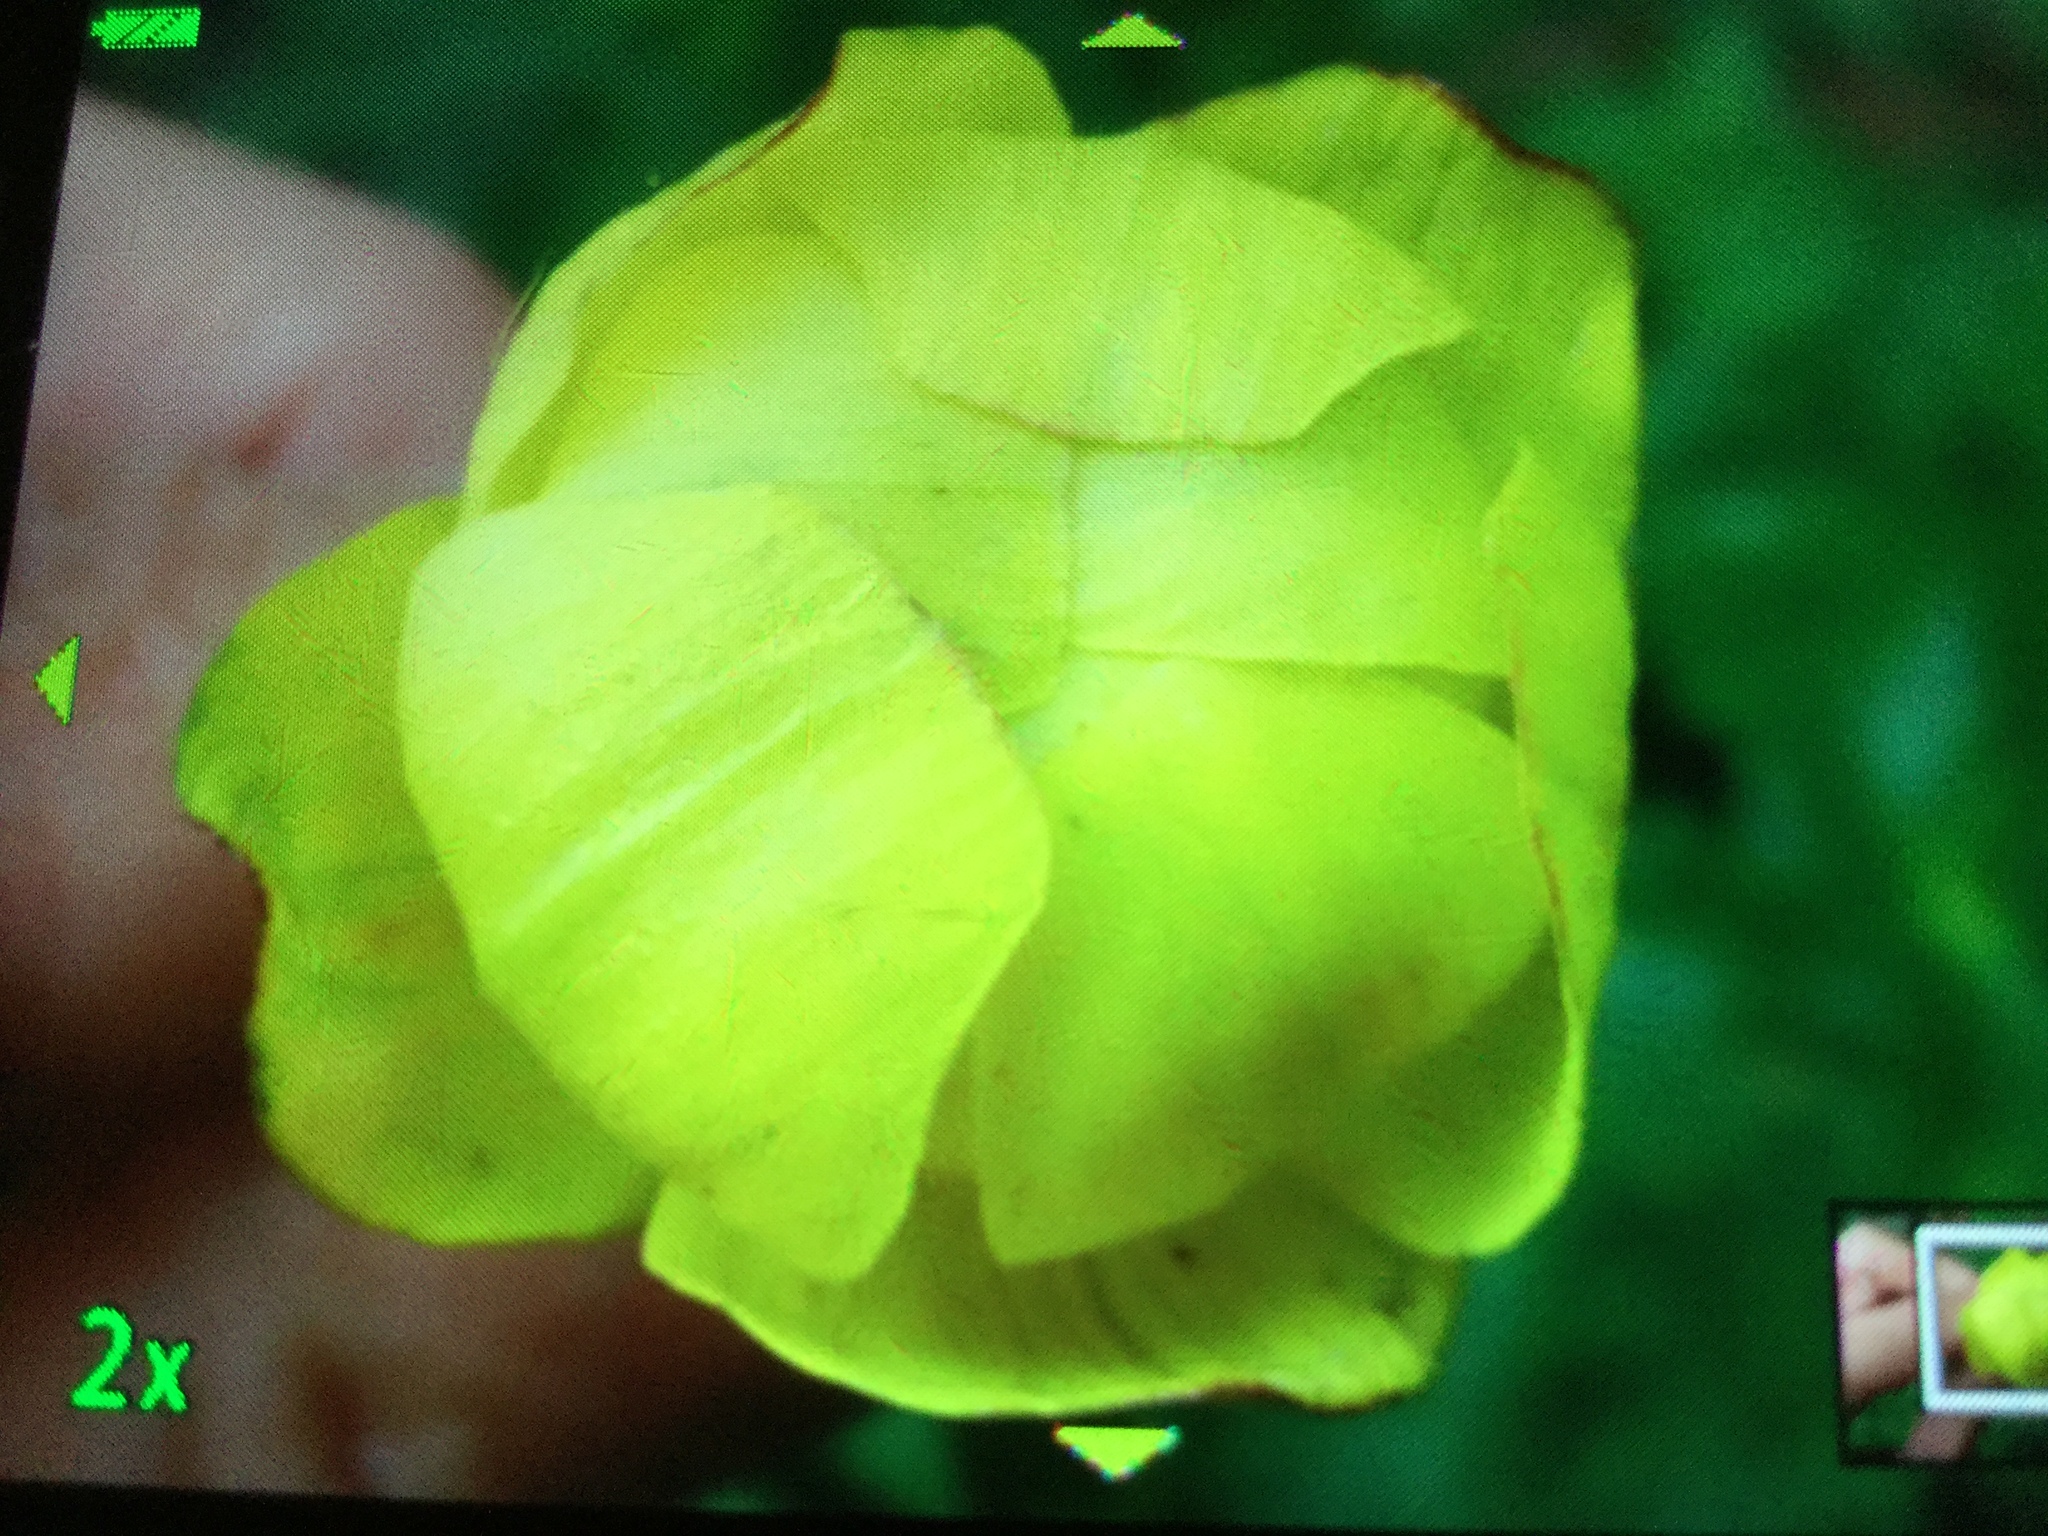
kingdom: Plantae
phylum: Tracheophyta
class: Magnoliopsida
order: Ranunculales
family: Ranunculaceae
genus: Trollius
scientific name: Trollius europaeus
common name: European globeflower
